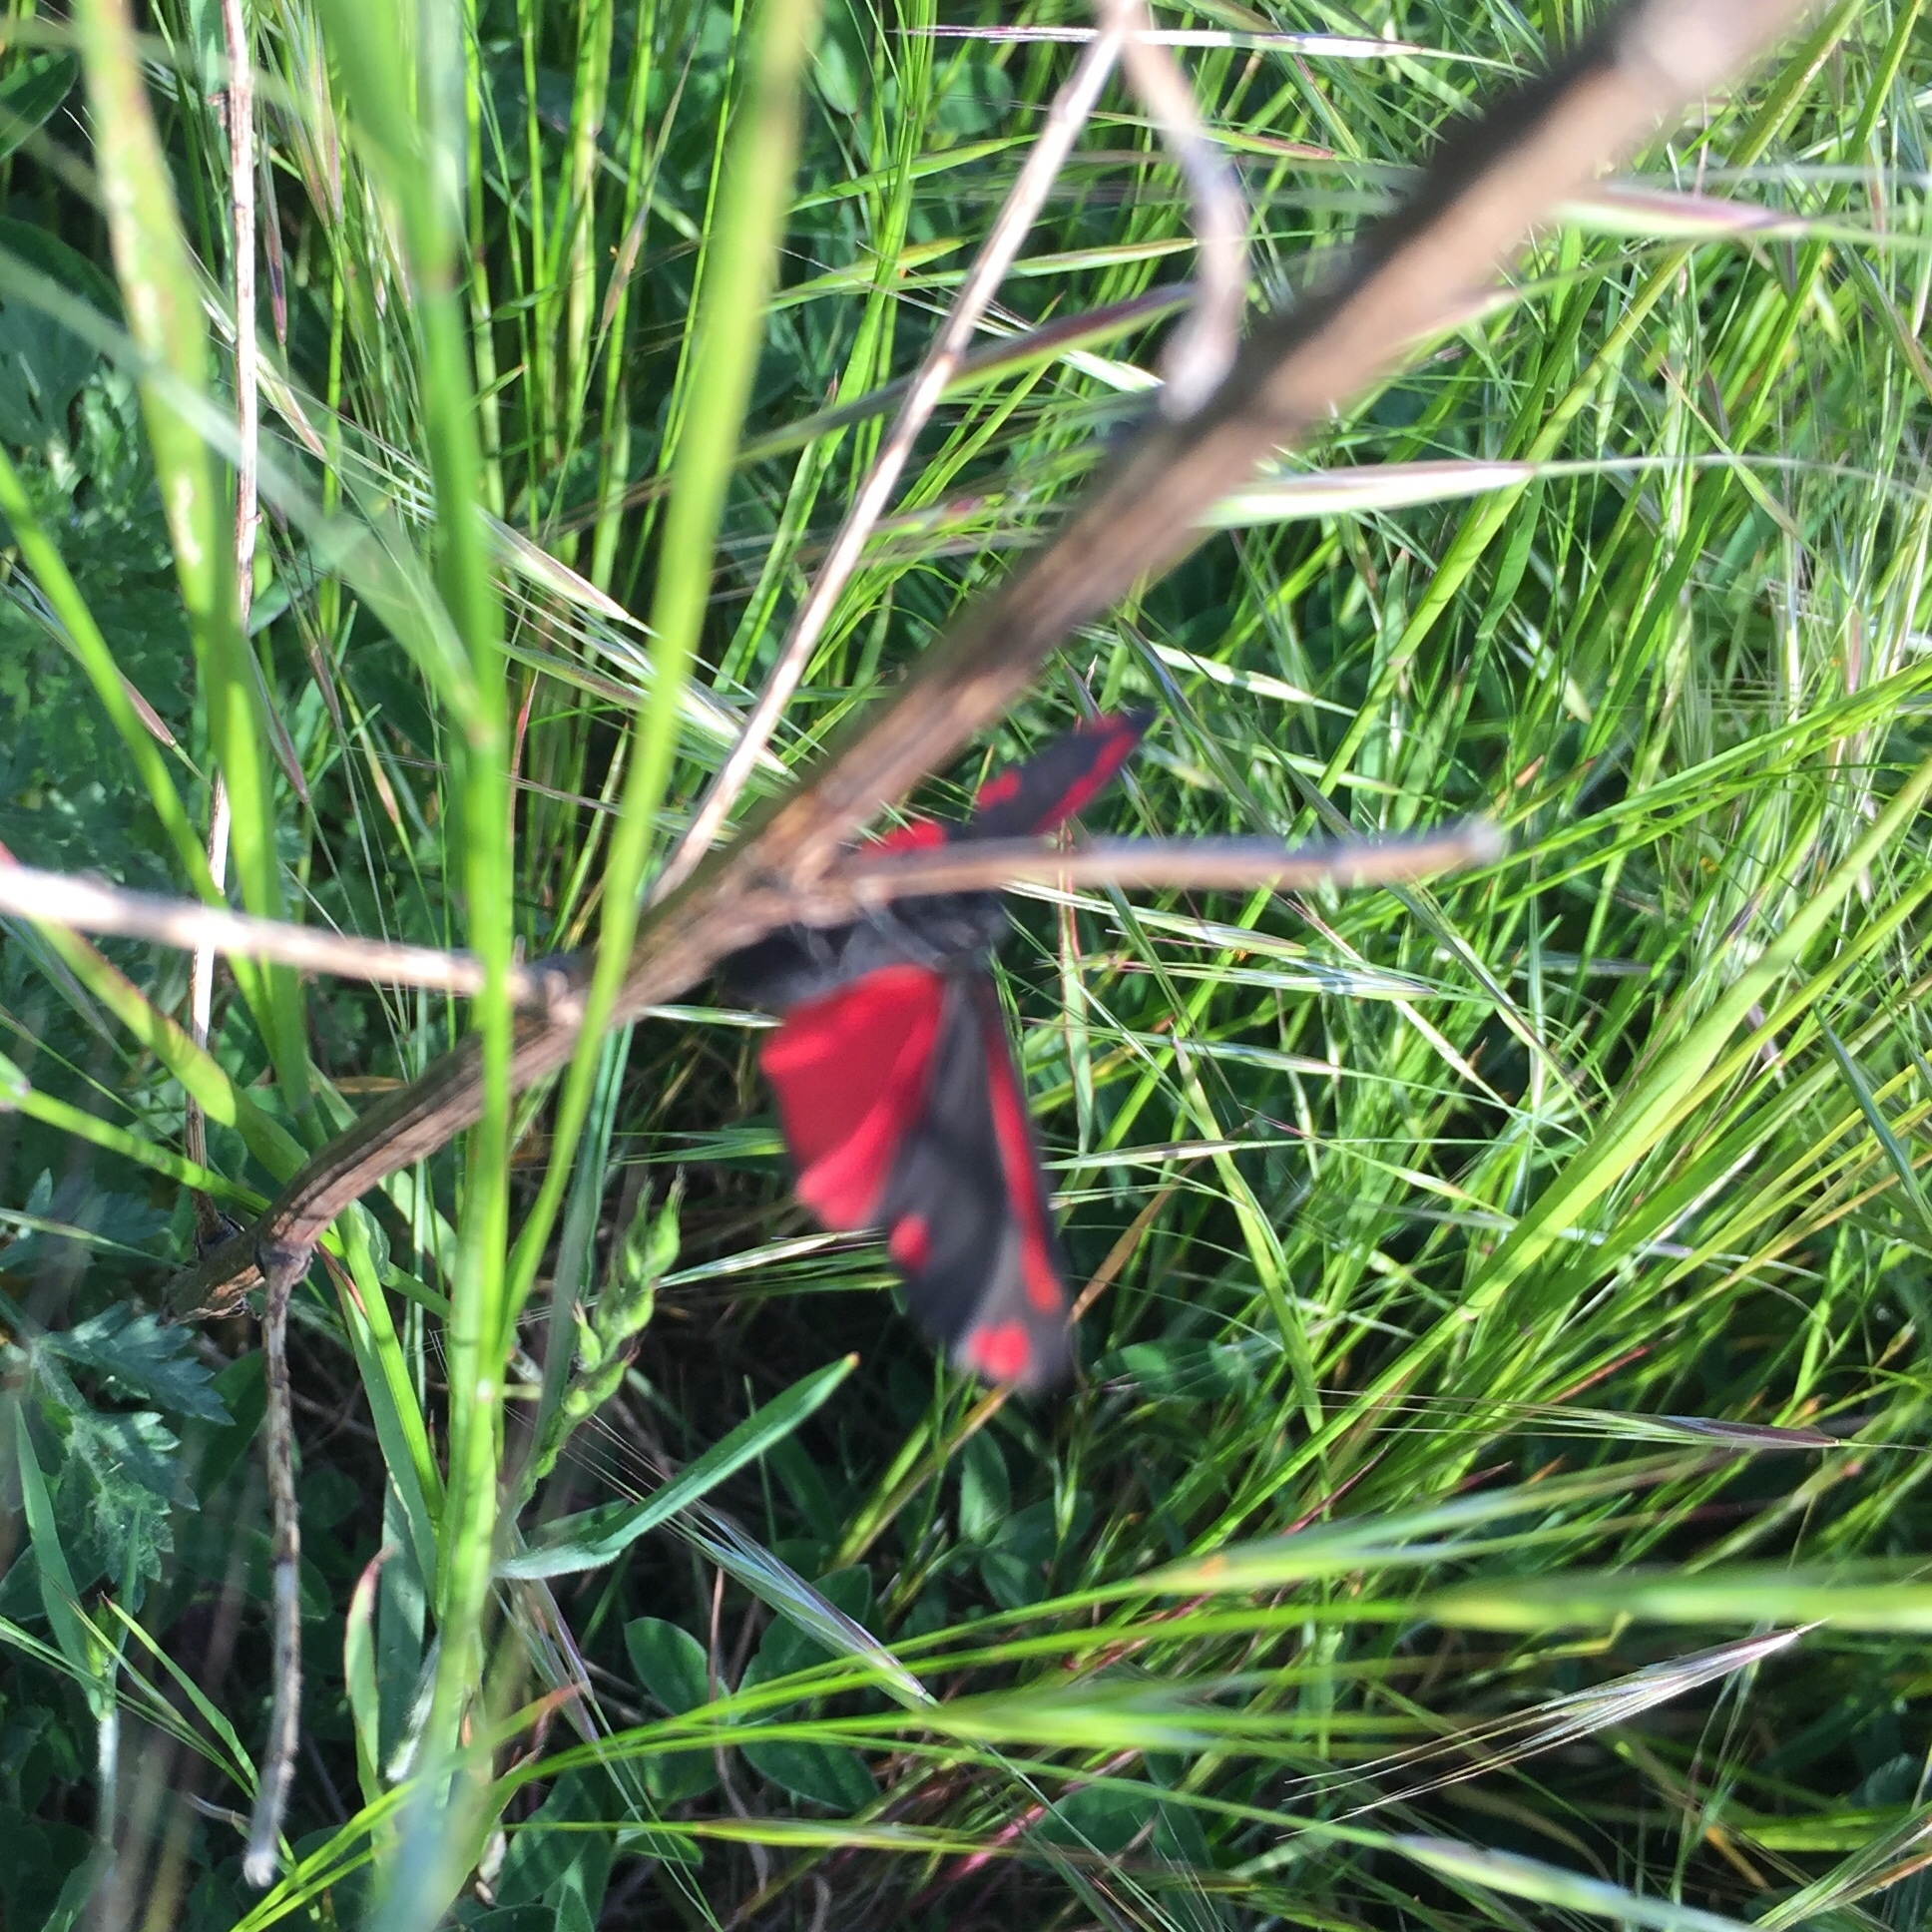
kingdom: Animalia
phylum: Arthropoda
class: Insecta
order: Lepidoptera
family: Erebidae
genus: Tyria
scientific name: Tyria jacobaeae
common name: Cinnabar
